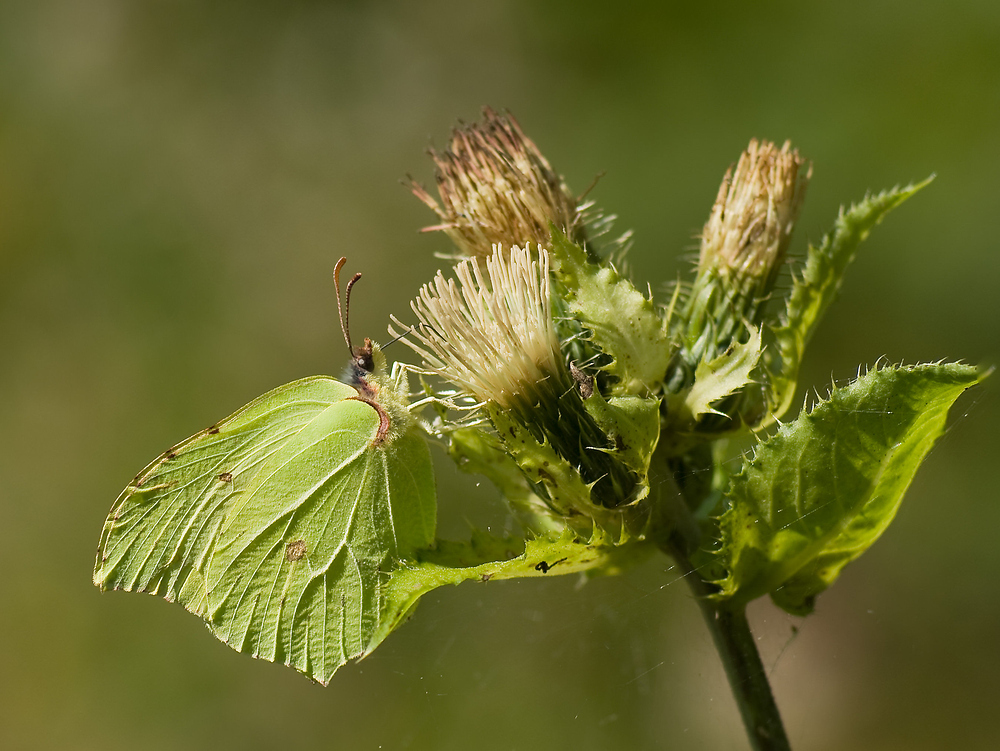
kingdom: Animalia
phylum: Arthropoda
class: Insecta
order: Lepidoptera
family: Pieridae
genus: Gonepteryx
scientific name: Gonepteryx rhamni
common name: Brimstone
